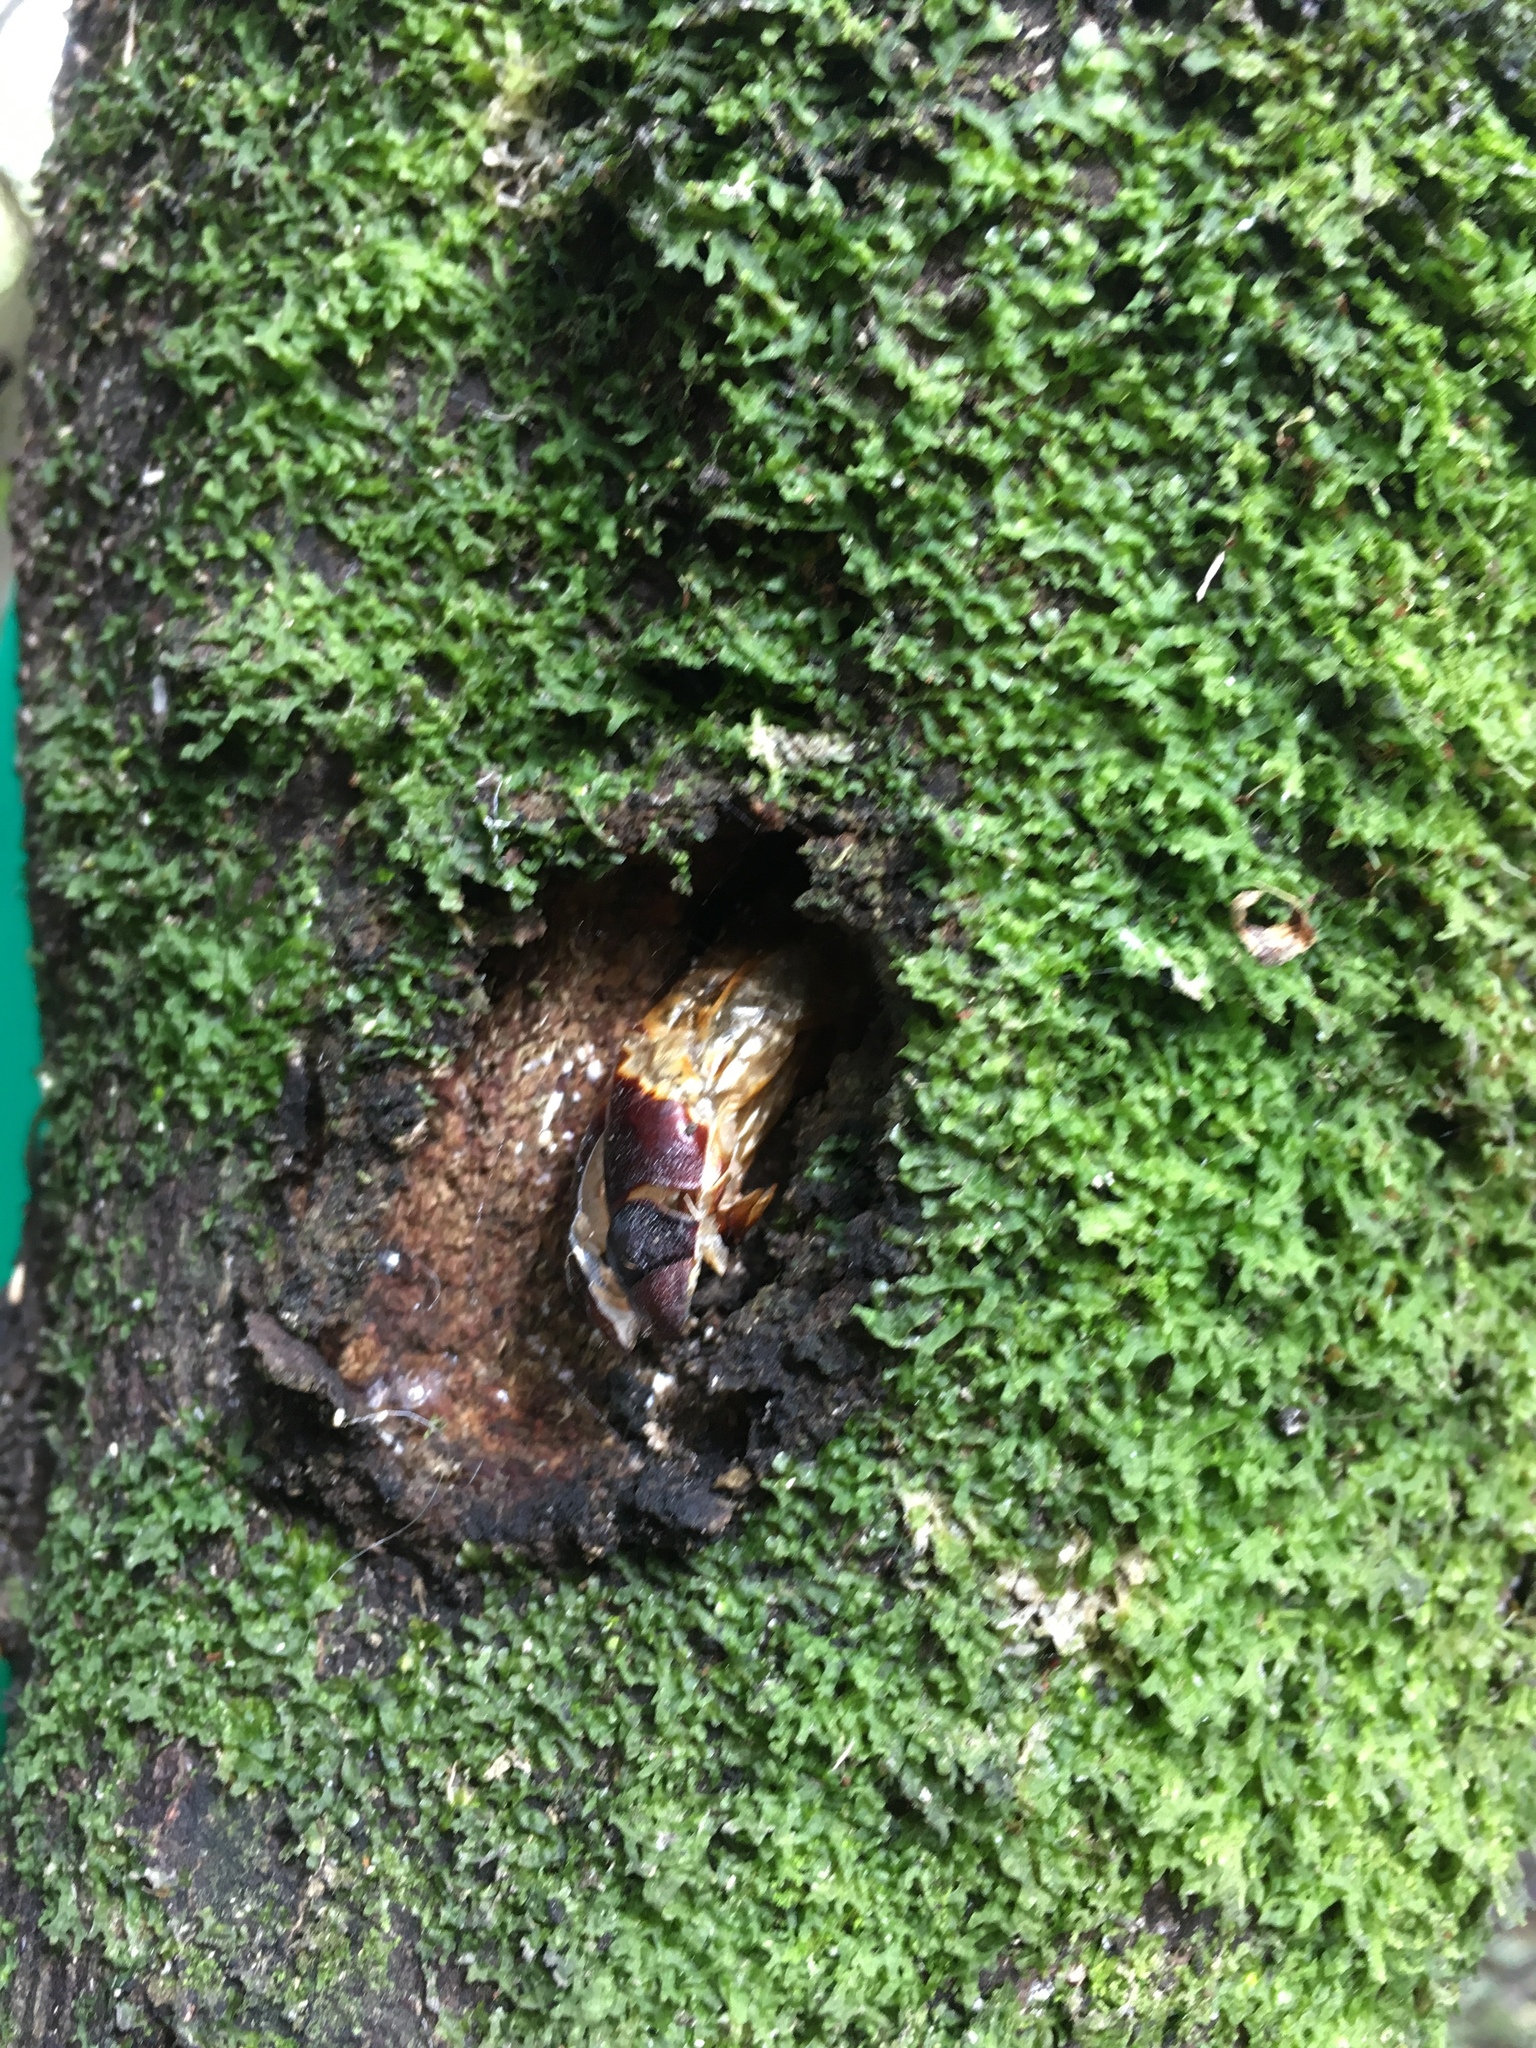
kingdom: Animalia
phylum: Arthropoda
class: Insecta
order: Lepidoptera
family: Hepialidae
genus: Aenetus
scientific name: Aenetus virescens
